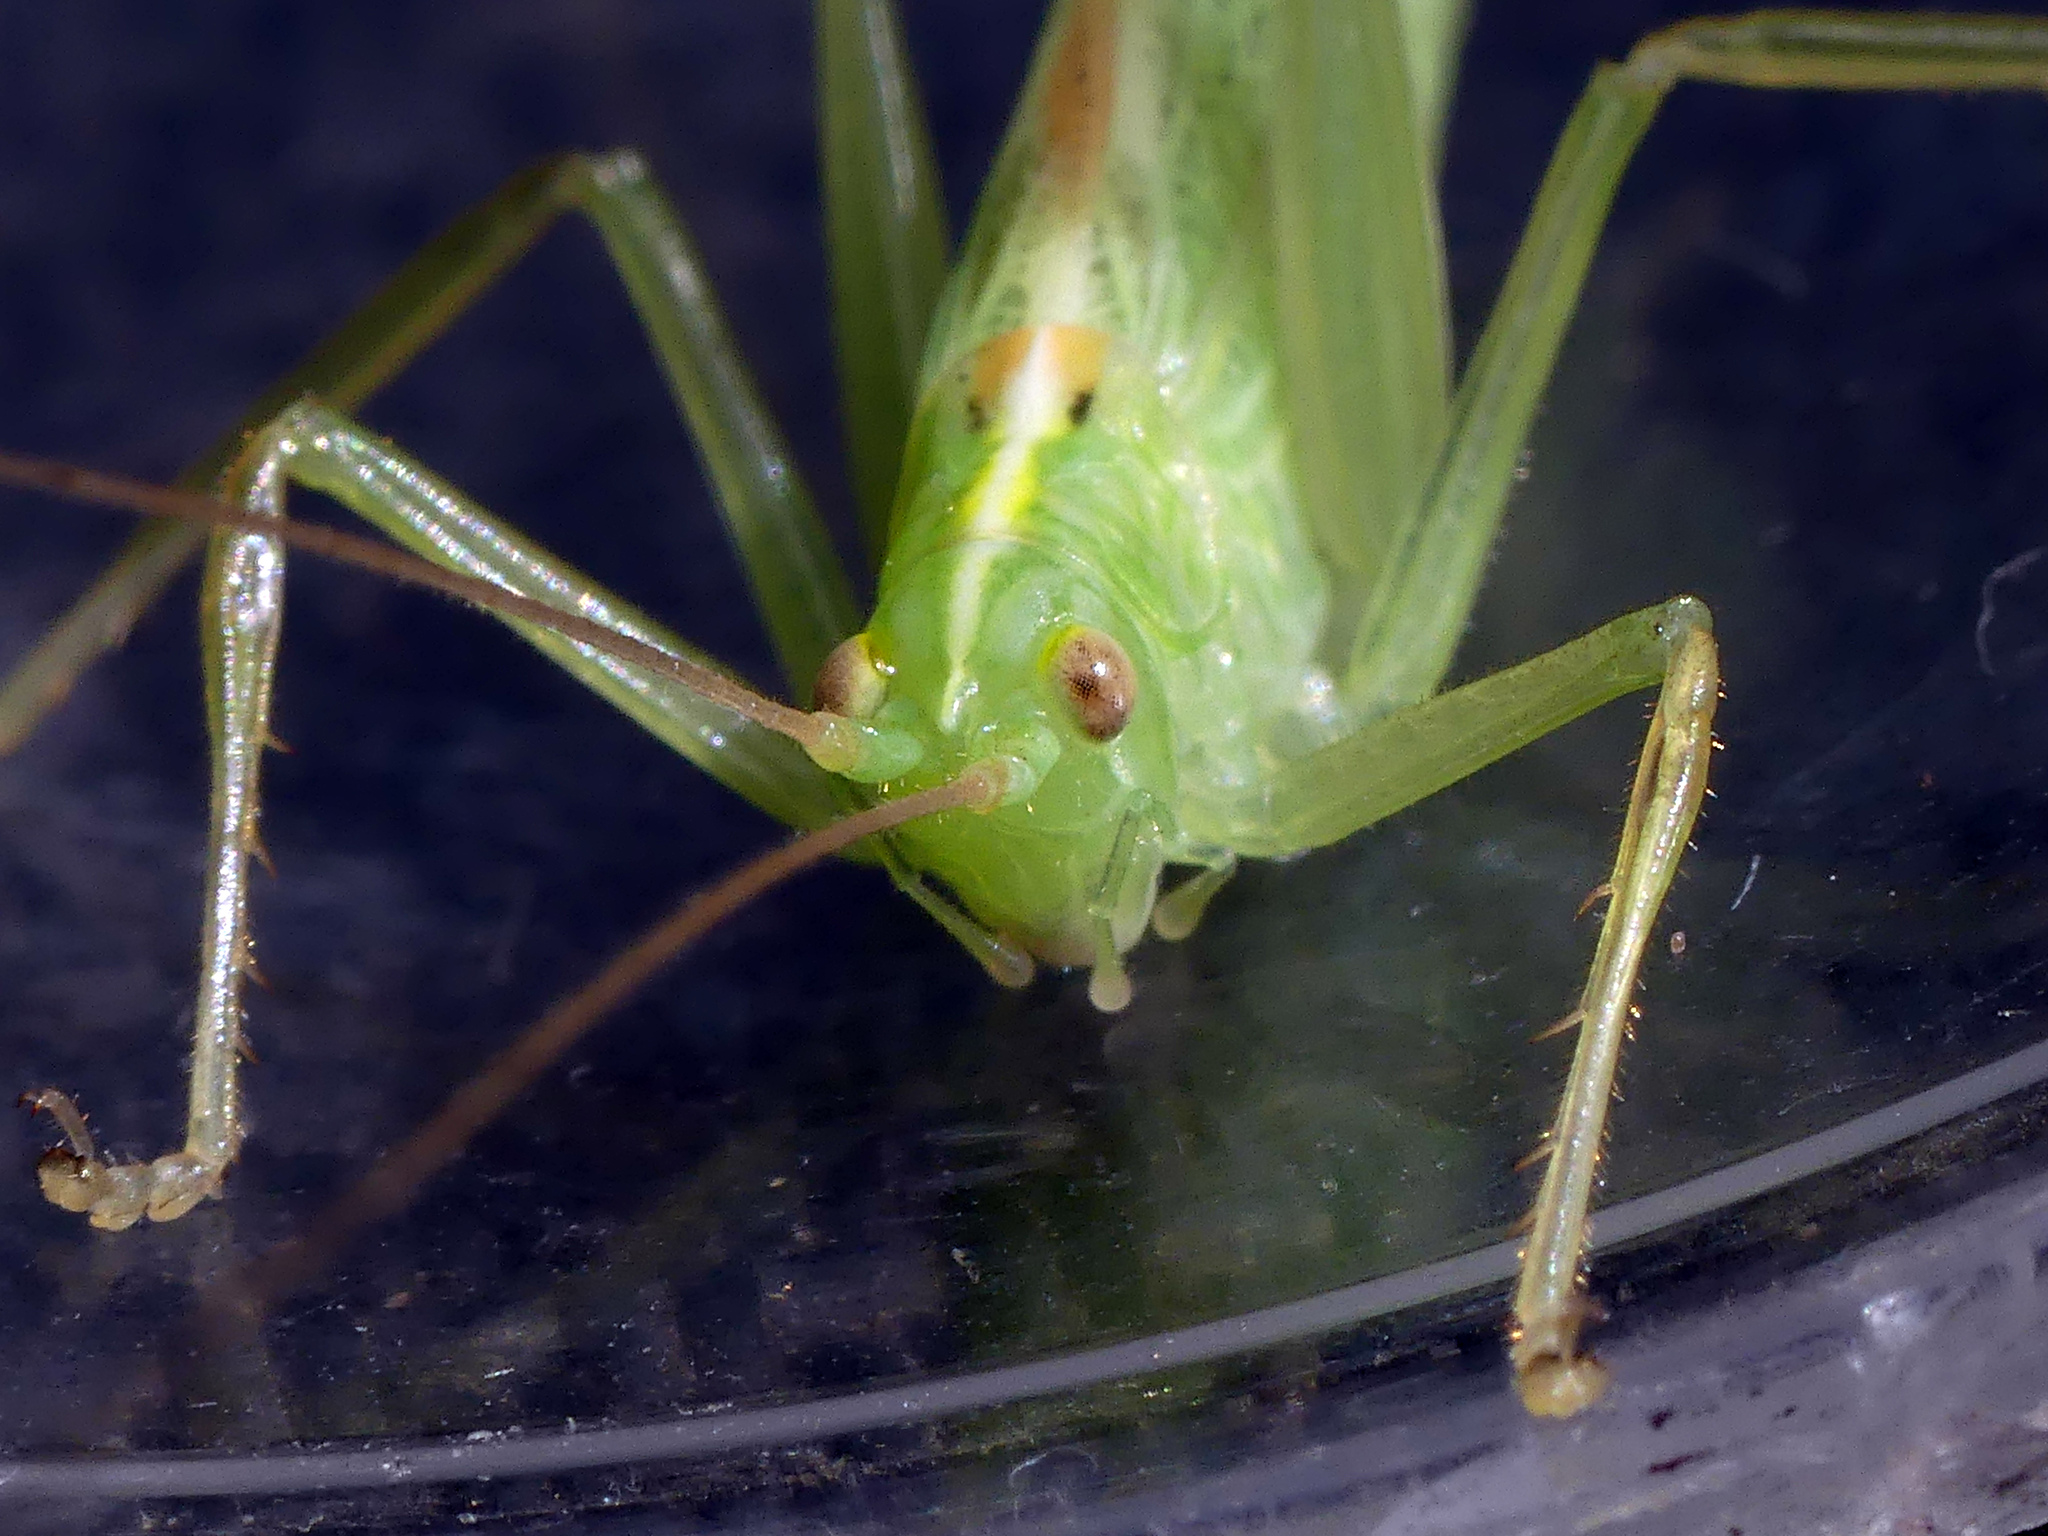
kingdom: Animalia
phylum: Arthropoda
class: Insecta
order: Orthoptera
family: Tettigoniidae
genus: Meconema
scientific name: Meconema thalassinum
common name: Oak bush-cricket
